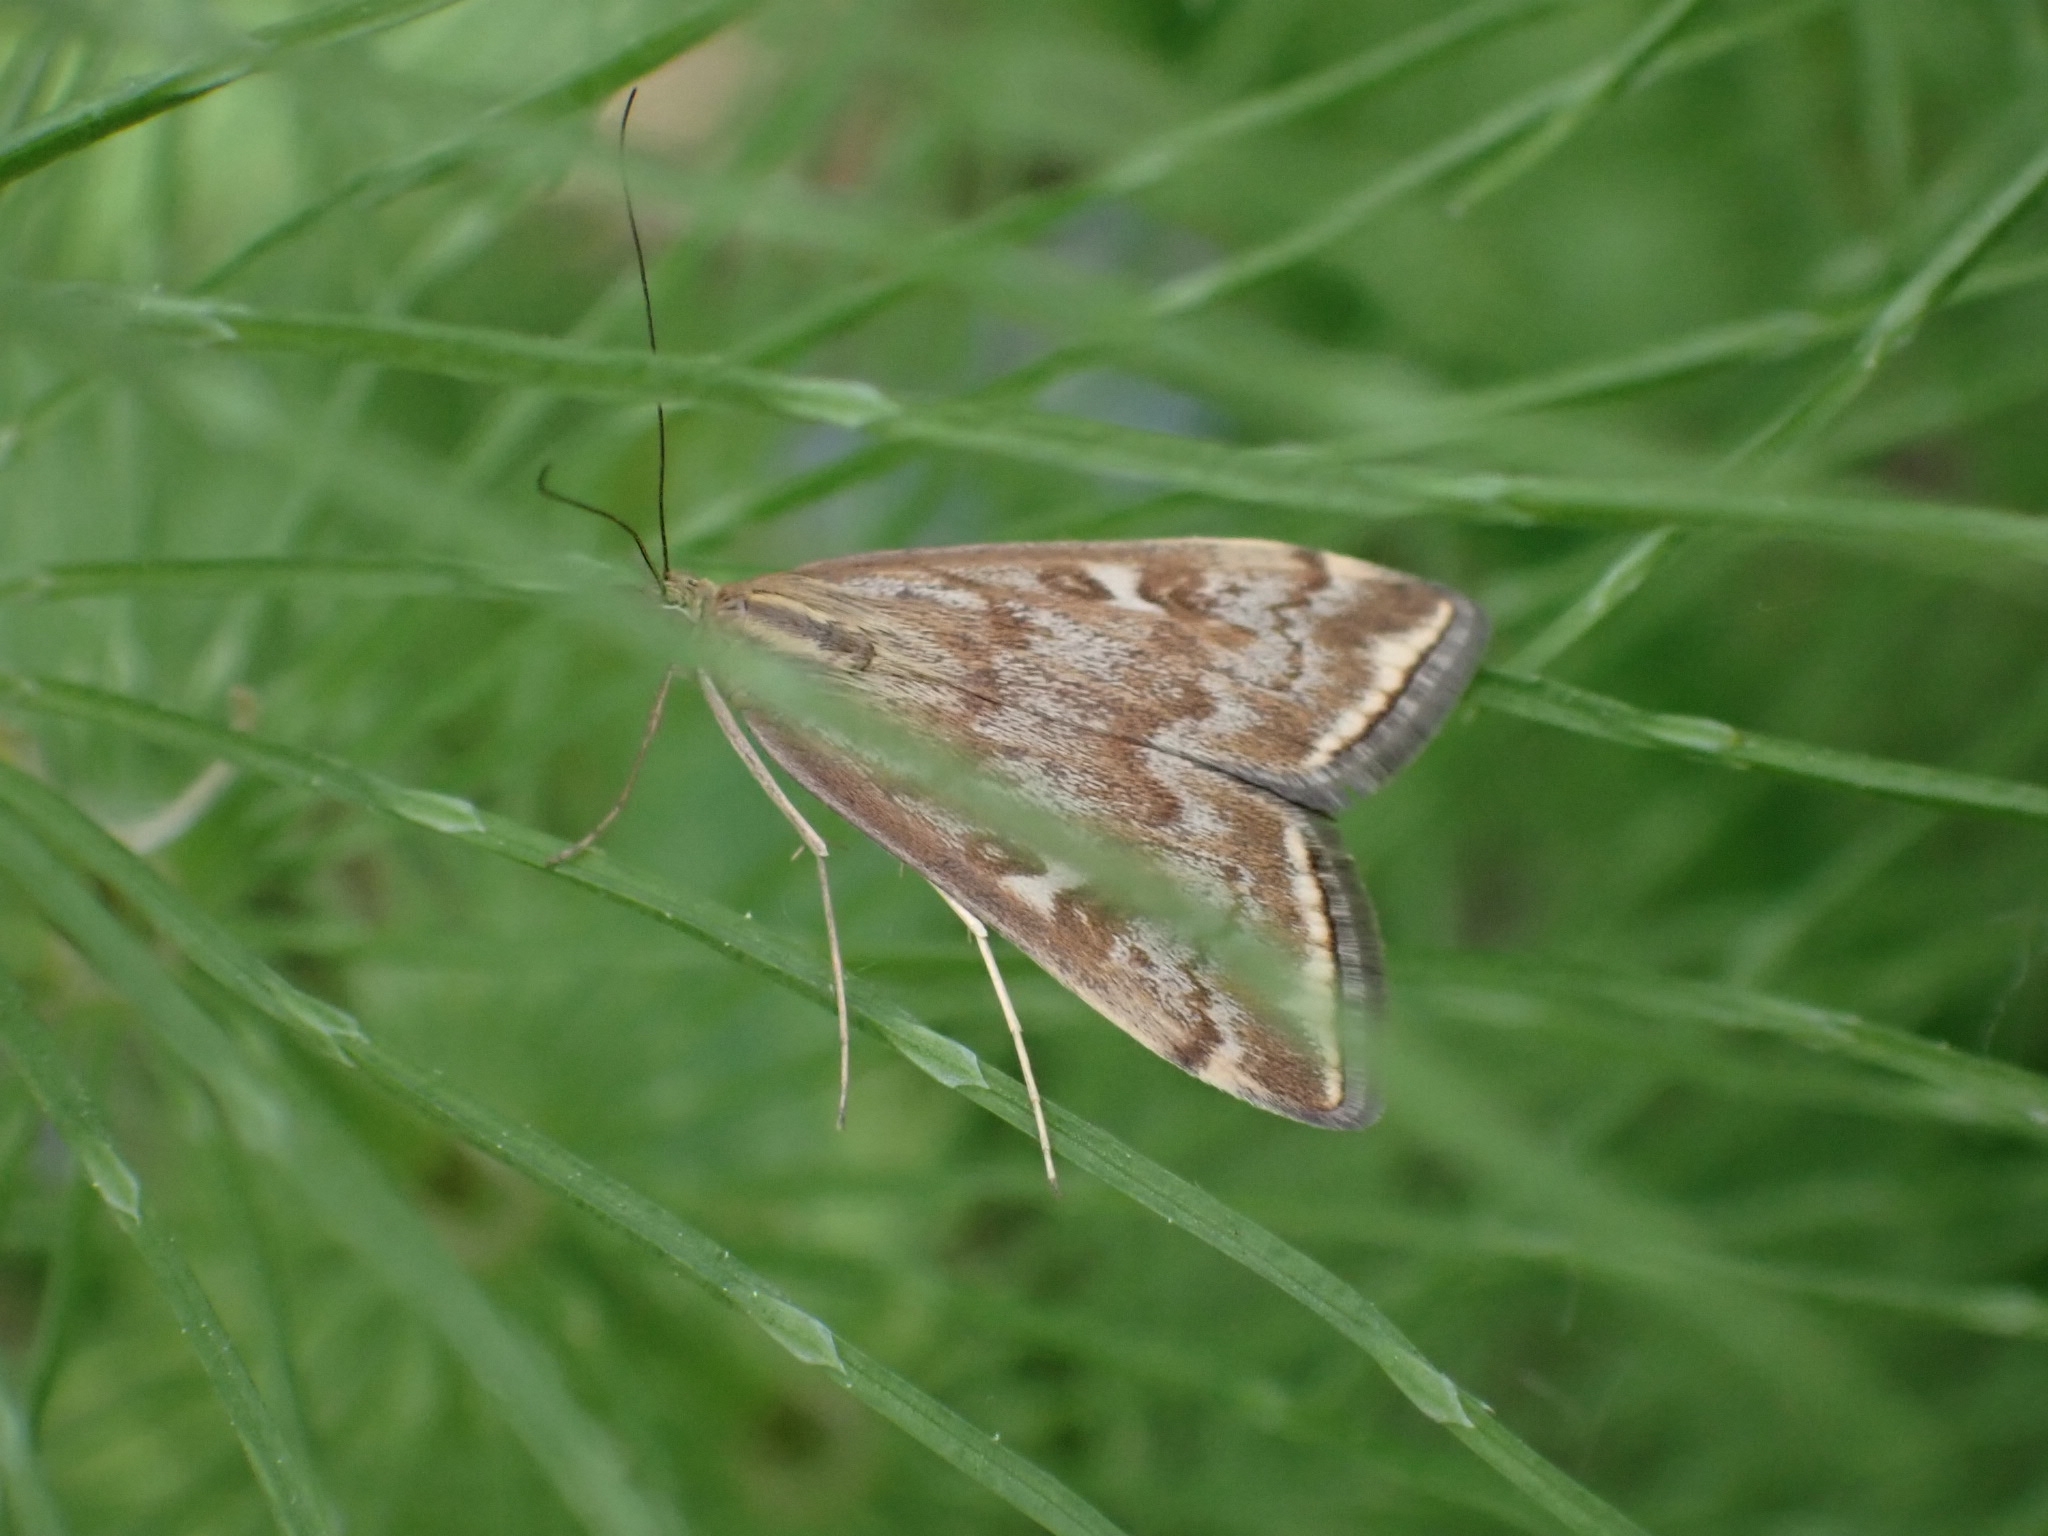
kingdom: Animalia
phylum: Arthropoda
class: Insecta
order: Lepidoptera
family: Crambidae
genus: Loxostege
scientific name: Loxostege sticticalis
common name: Crambid moth
